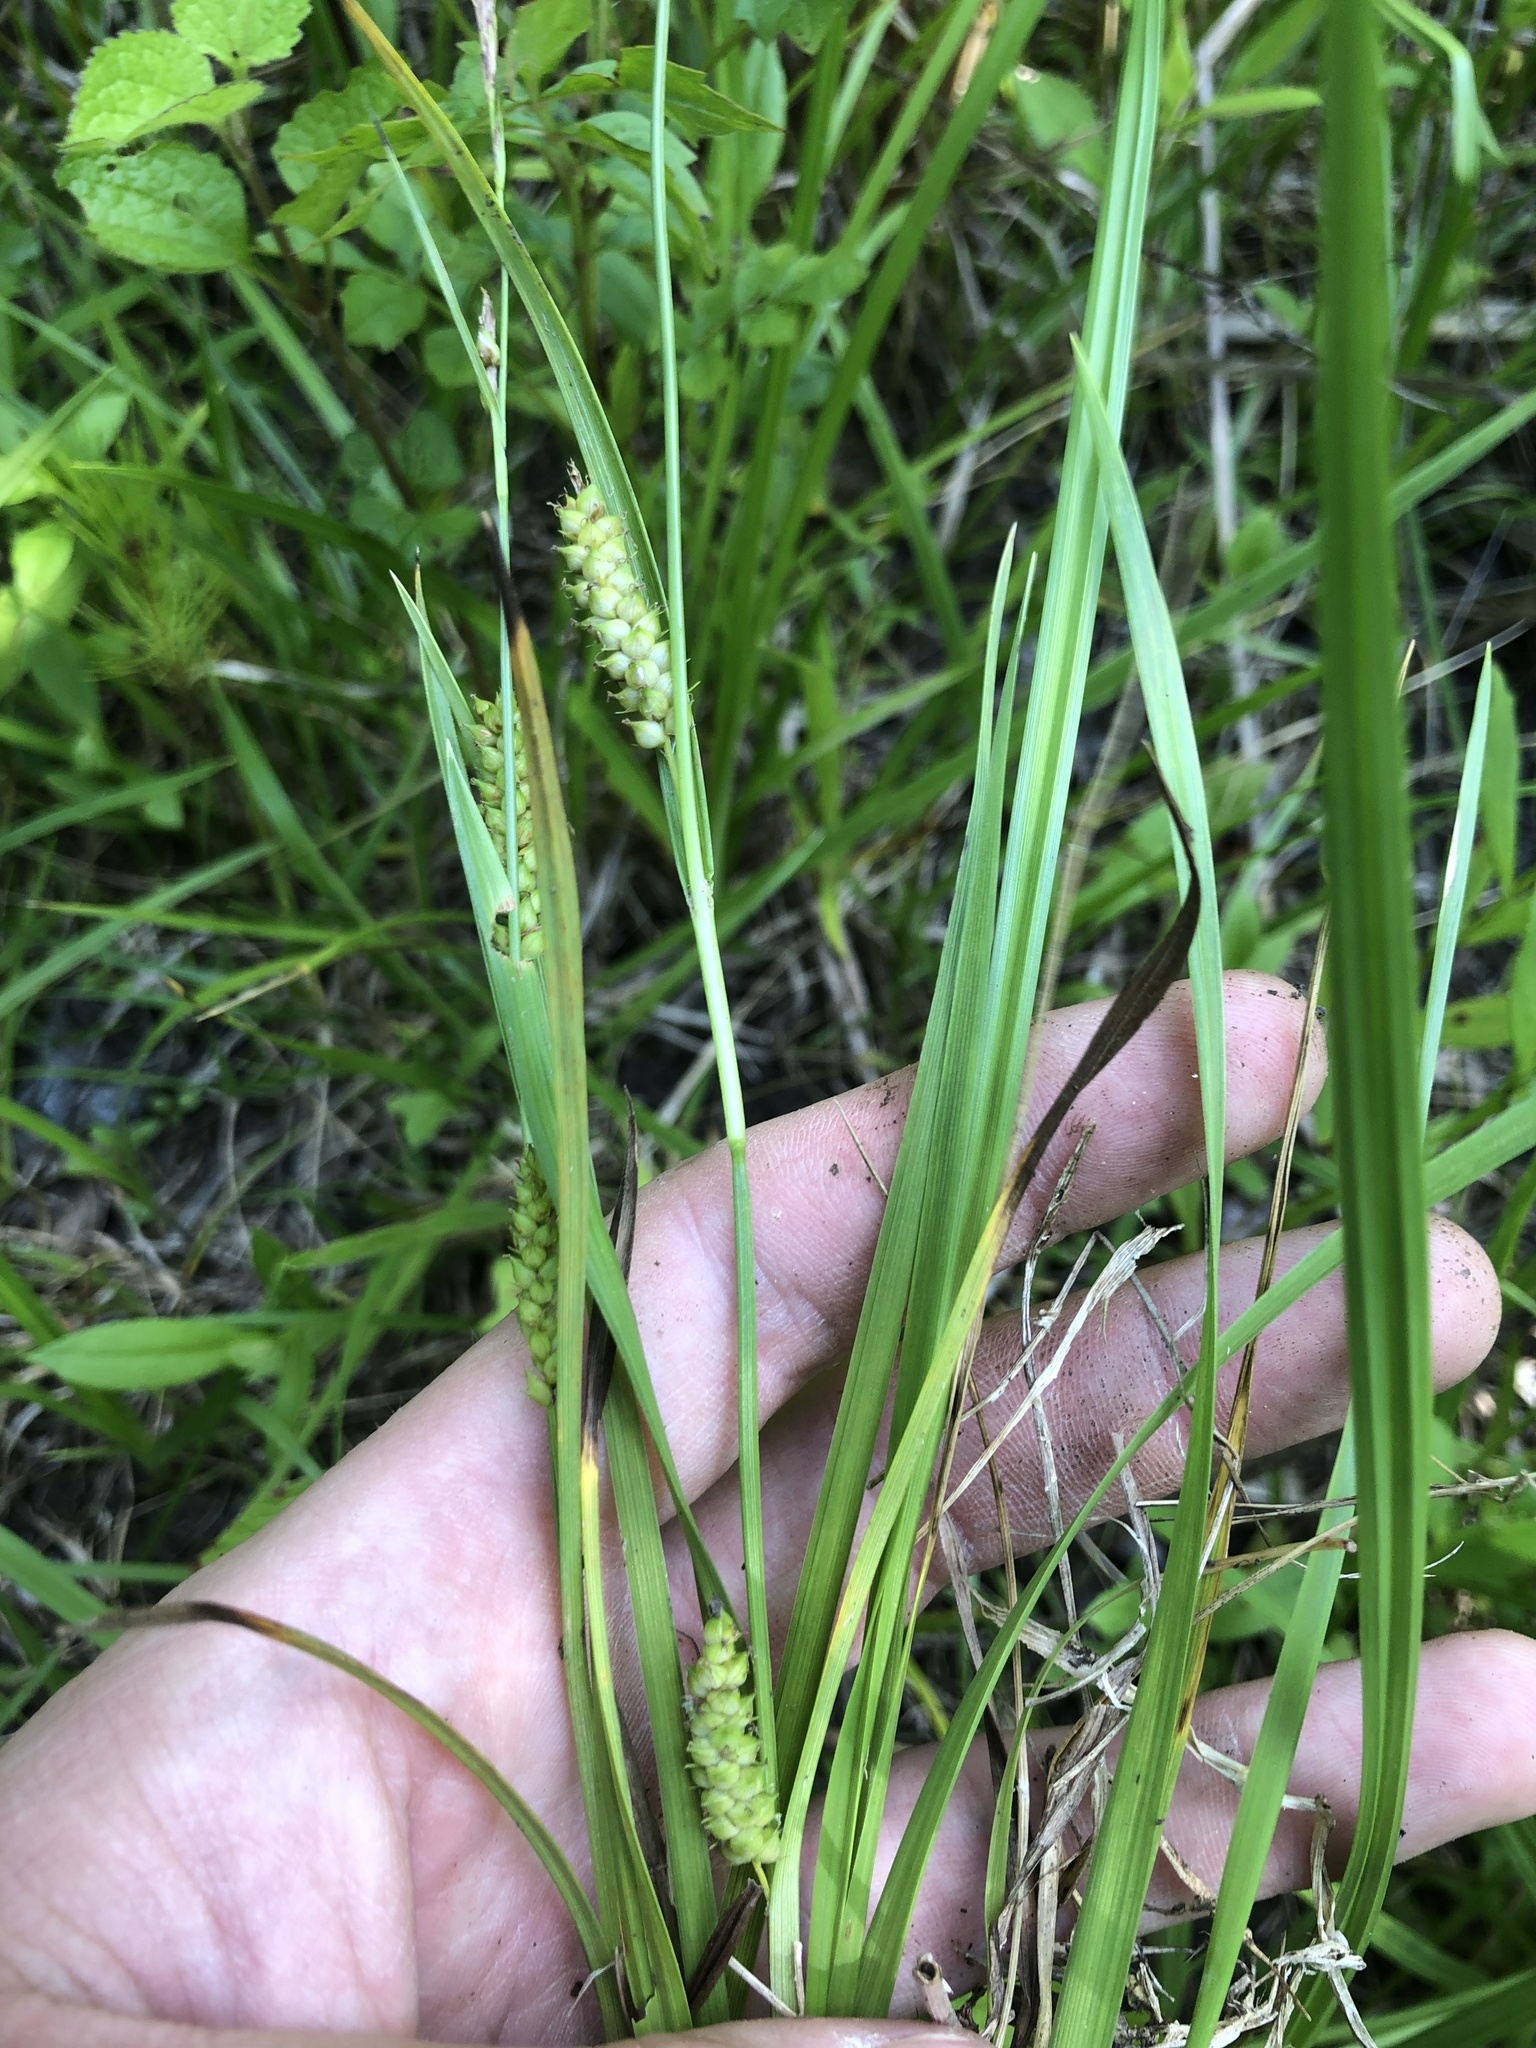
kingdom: Plantae
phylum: Tracheophyta
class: Liliopsida
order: Poales
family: Cyperaceae
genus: Carex
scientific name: Carex microdonta
